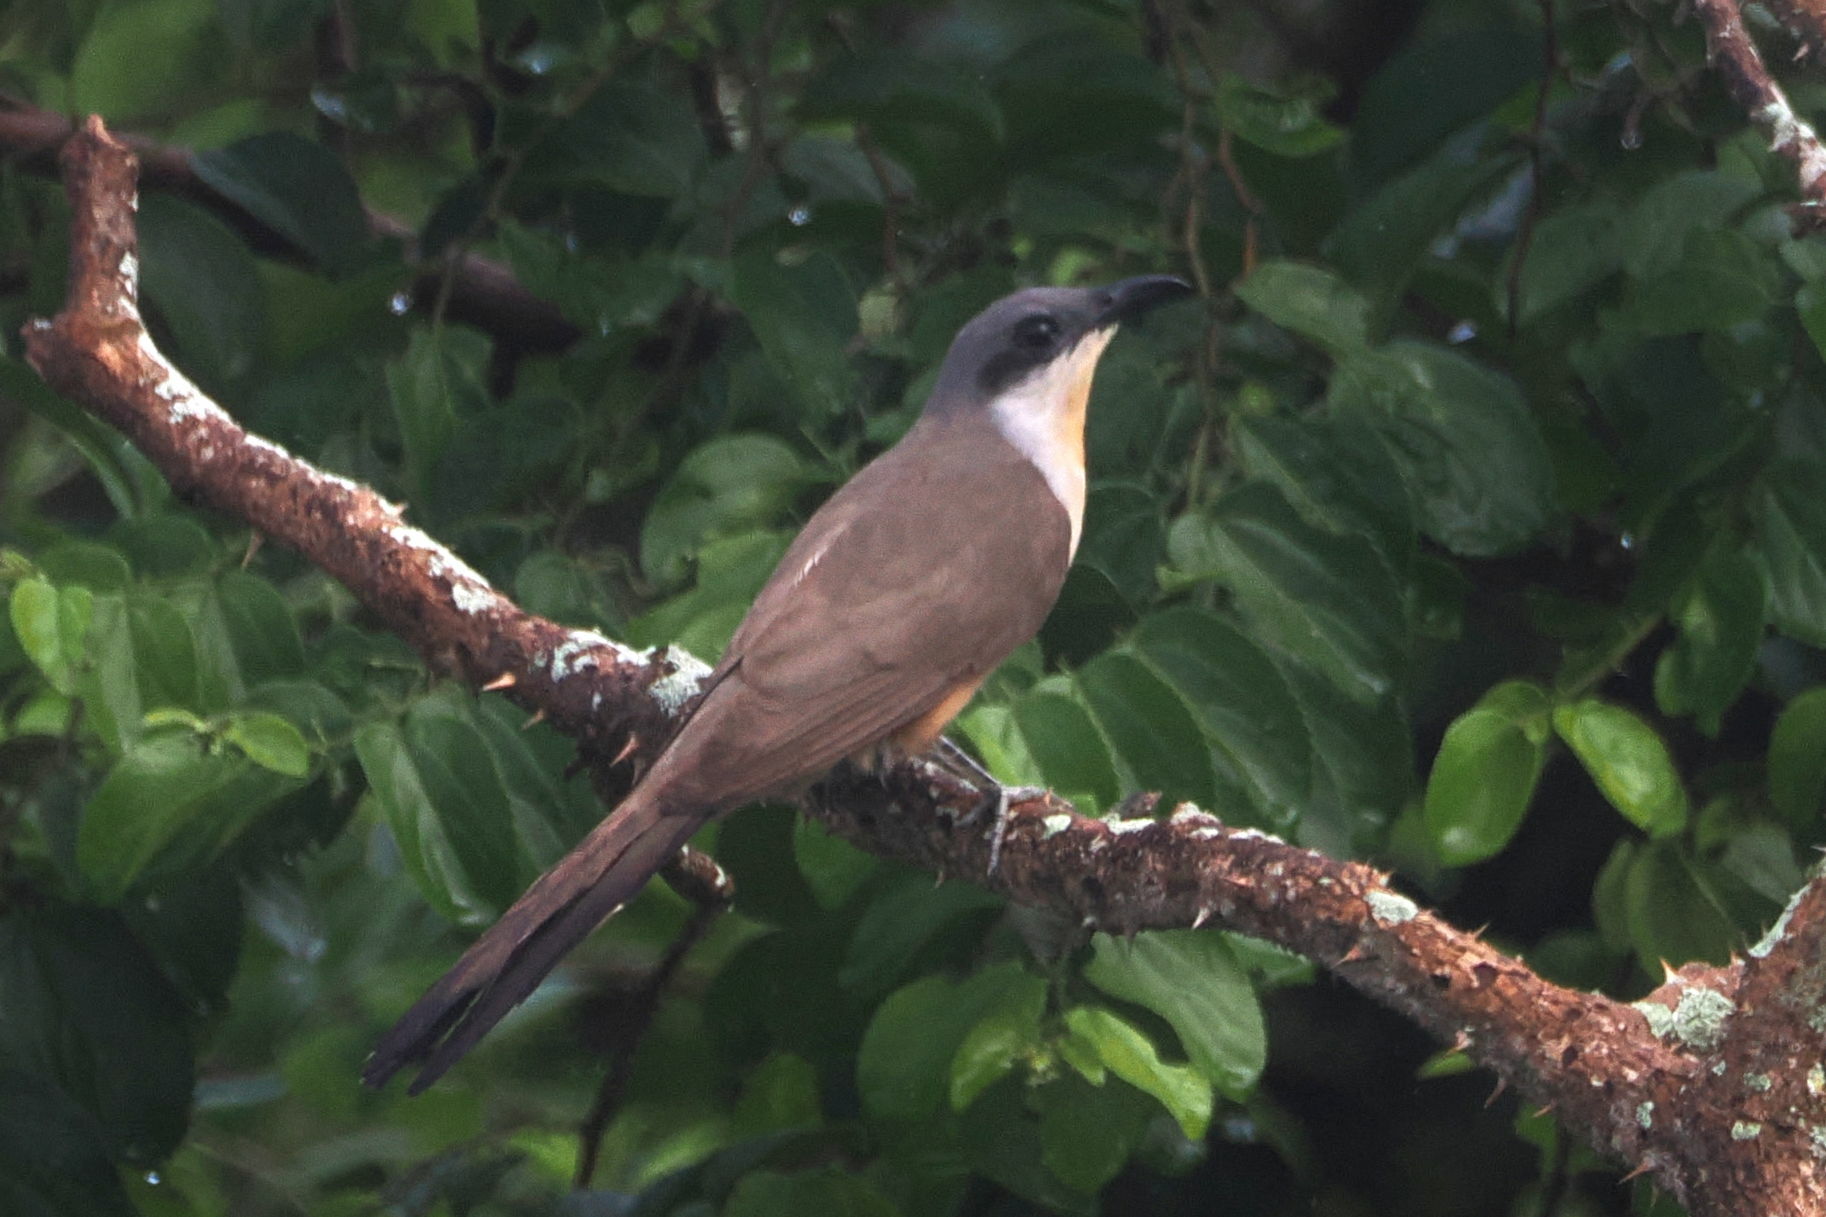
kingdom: Animalia
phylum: Chordata
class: Aves
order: Cuculiformes
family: Cuculidae
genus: Coccyzus
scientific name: Coccyzus melacoryphus
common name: Dark-billed cuckoo
